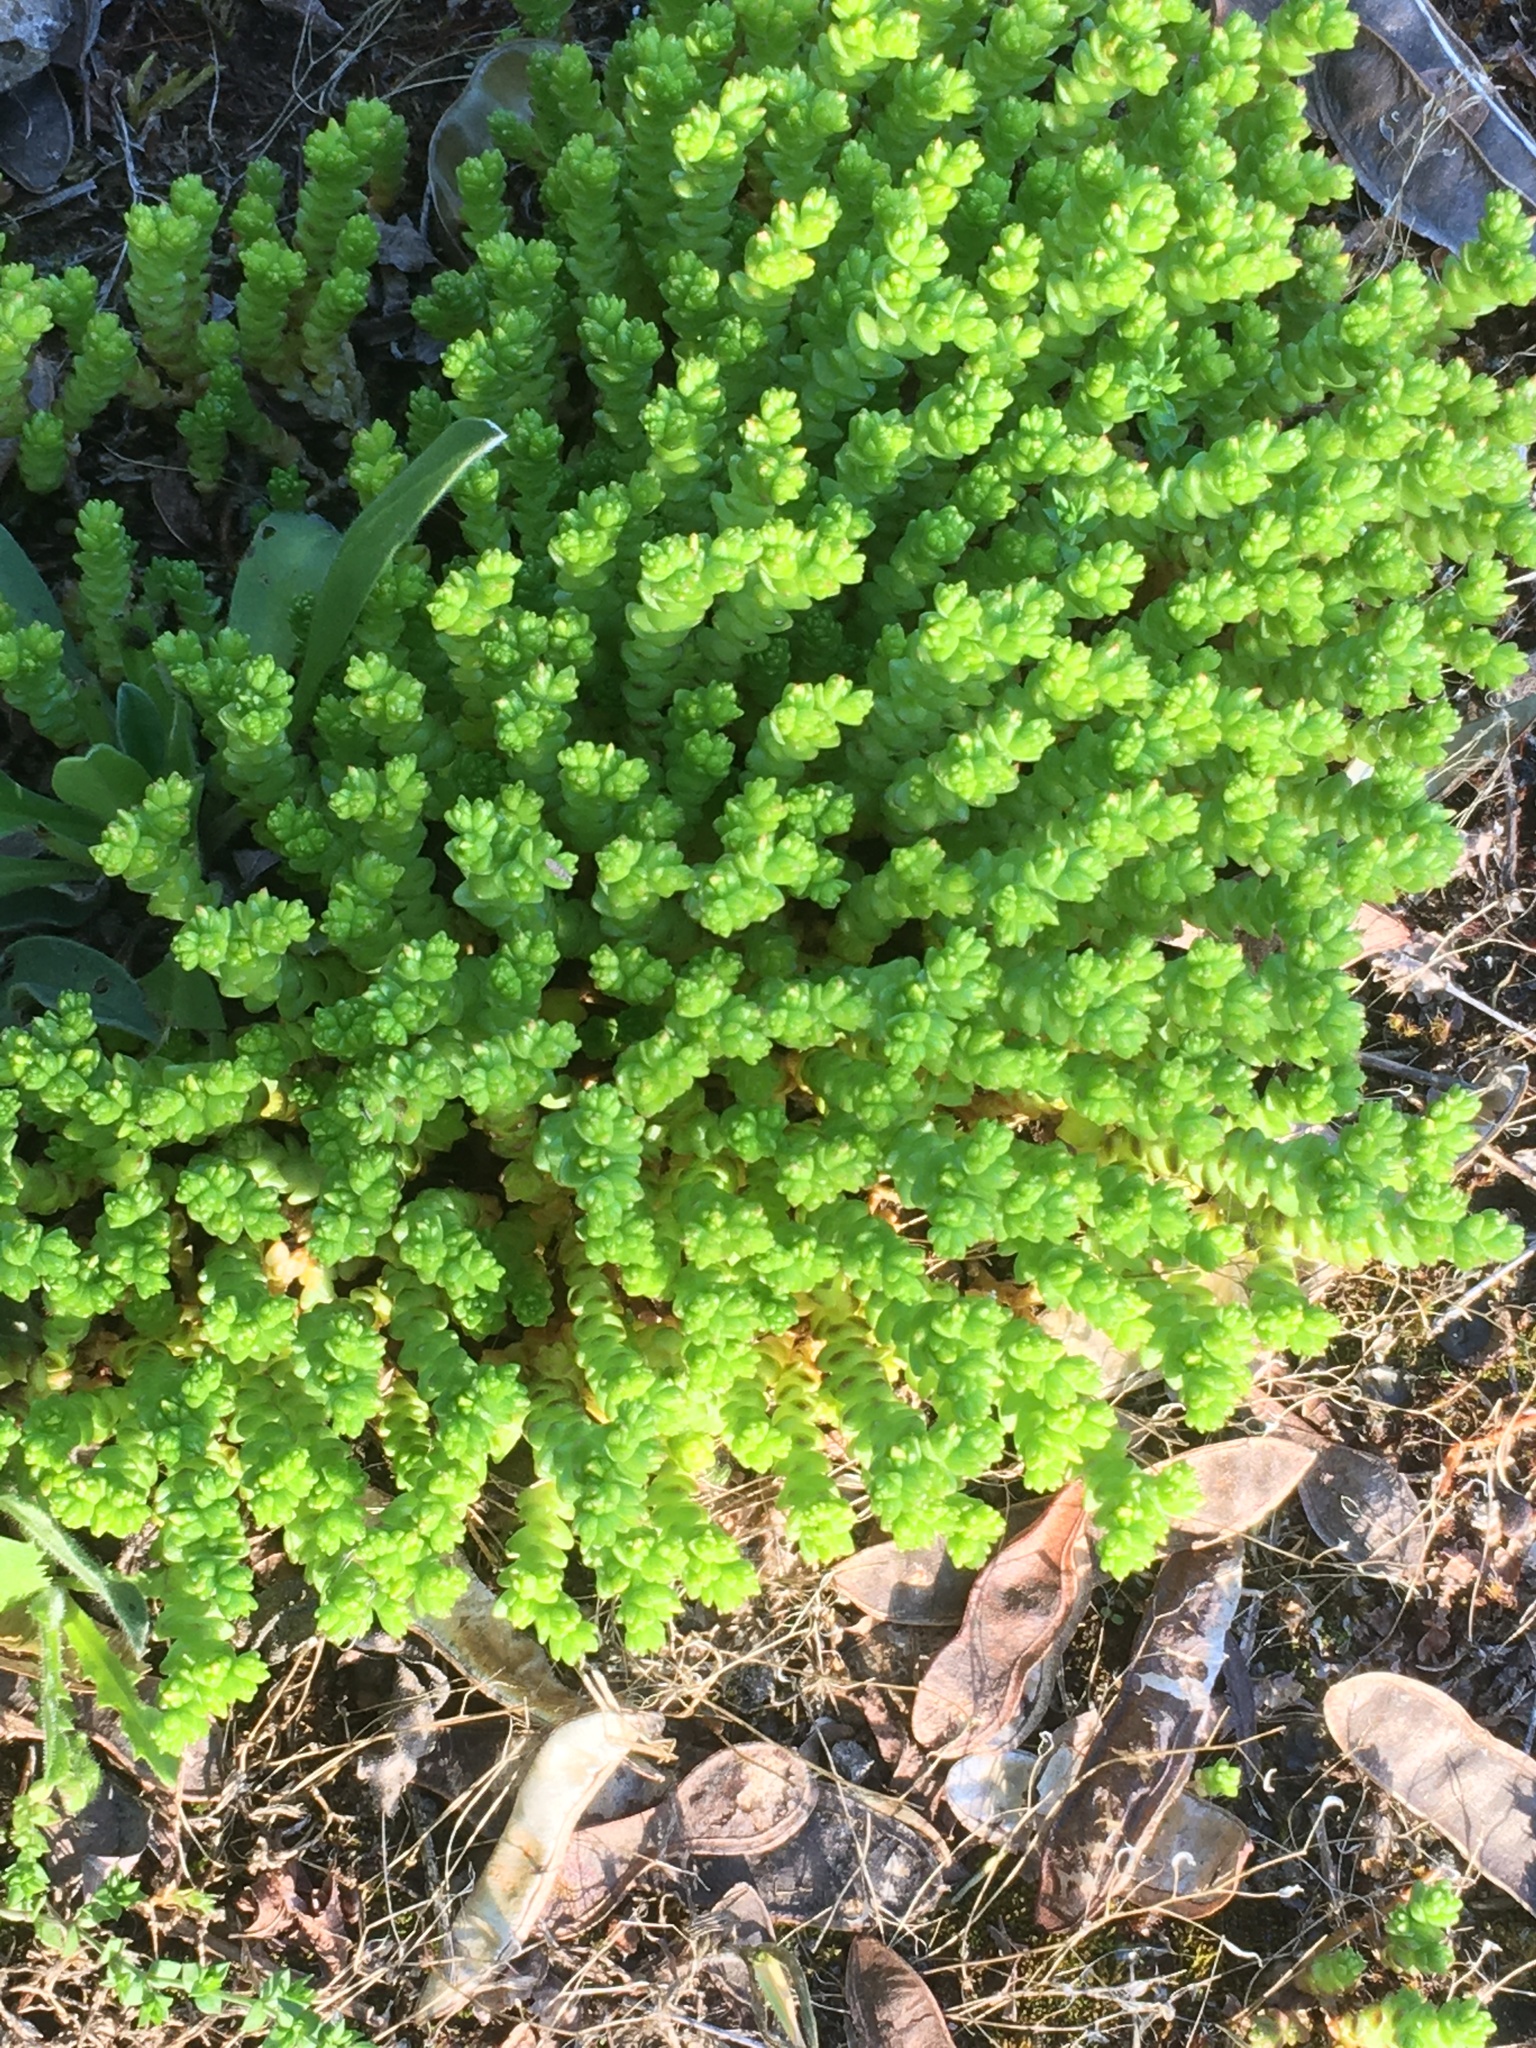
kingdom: Plantae
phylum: Tracheophyta
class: Magnoliopsida
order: Saxifragales
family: Crassulaceae
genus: Sedum
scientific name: Sedum acre
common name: Biting stonecrop
